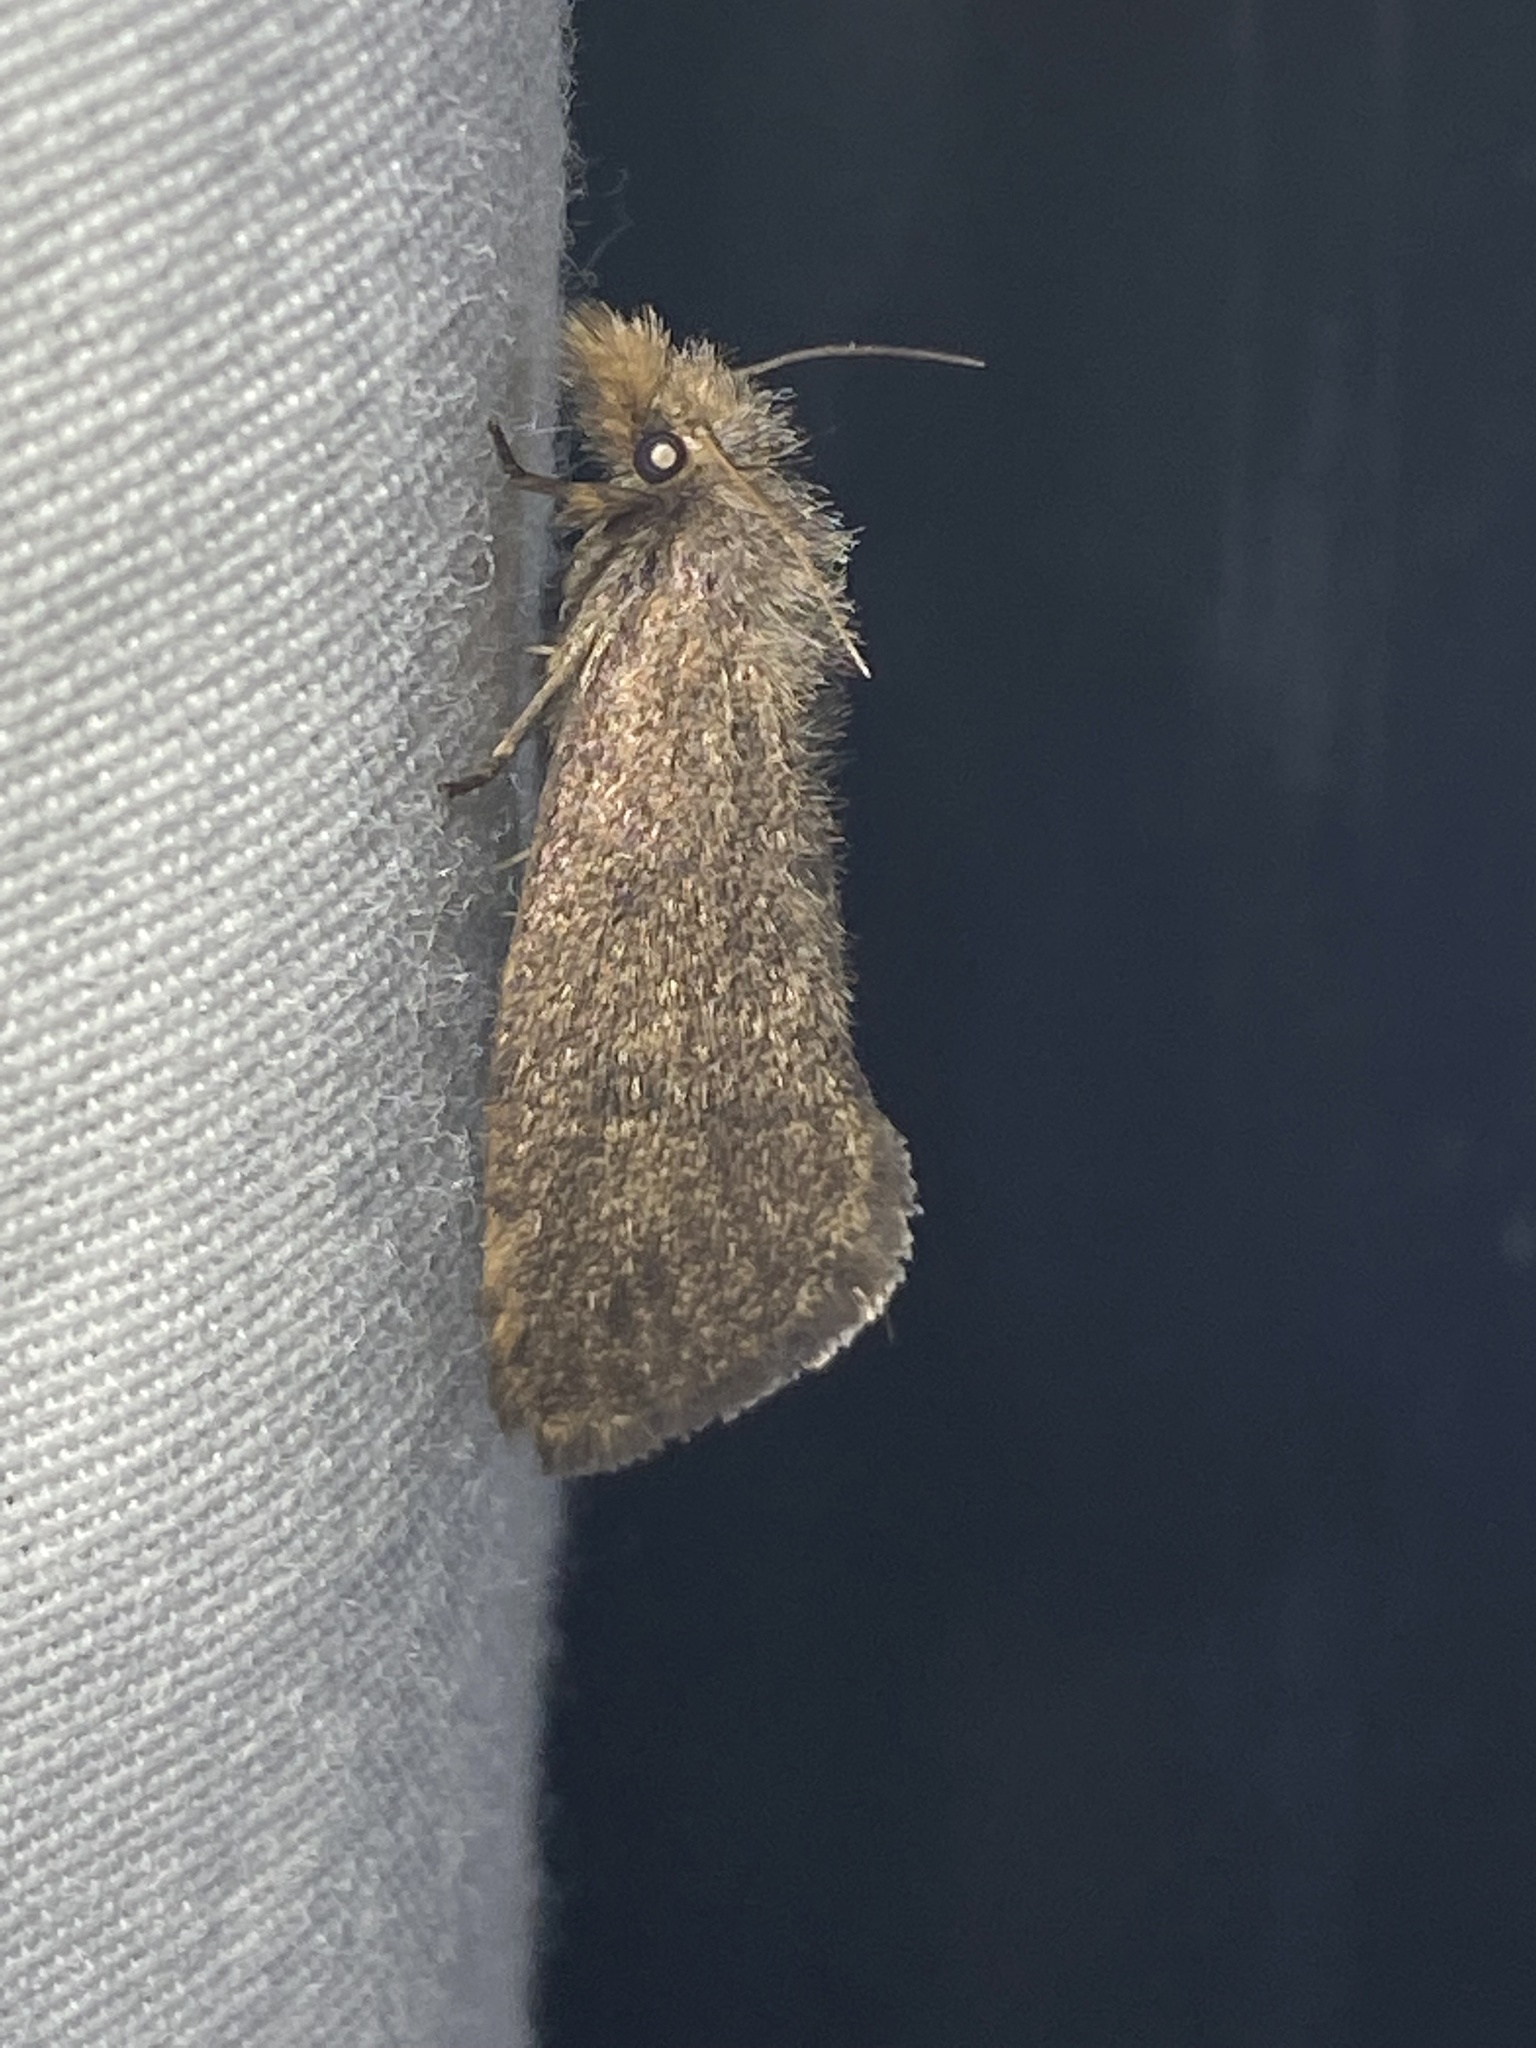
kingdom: Animalia
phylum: Arthropoda
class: Insecta
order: Lepidoptera
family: Tineidae
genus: Acrolophus
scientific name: Acrolophus propinqua
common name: Walsingham's grass tubeworm moth
